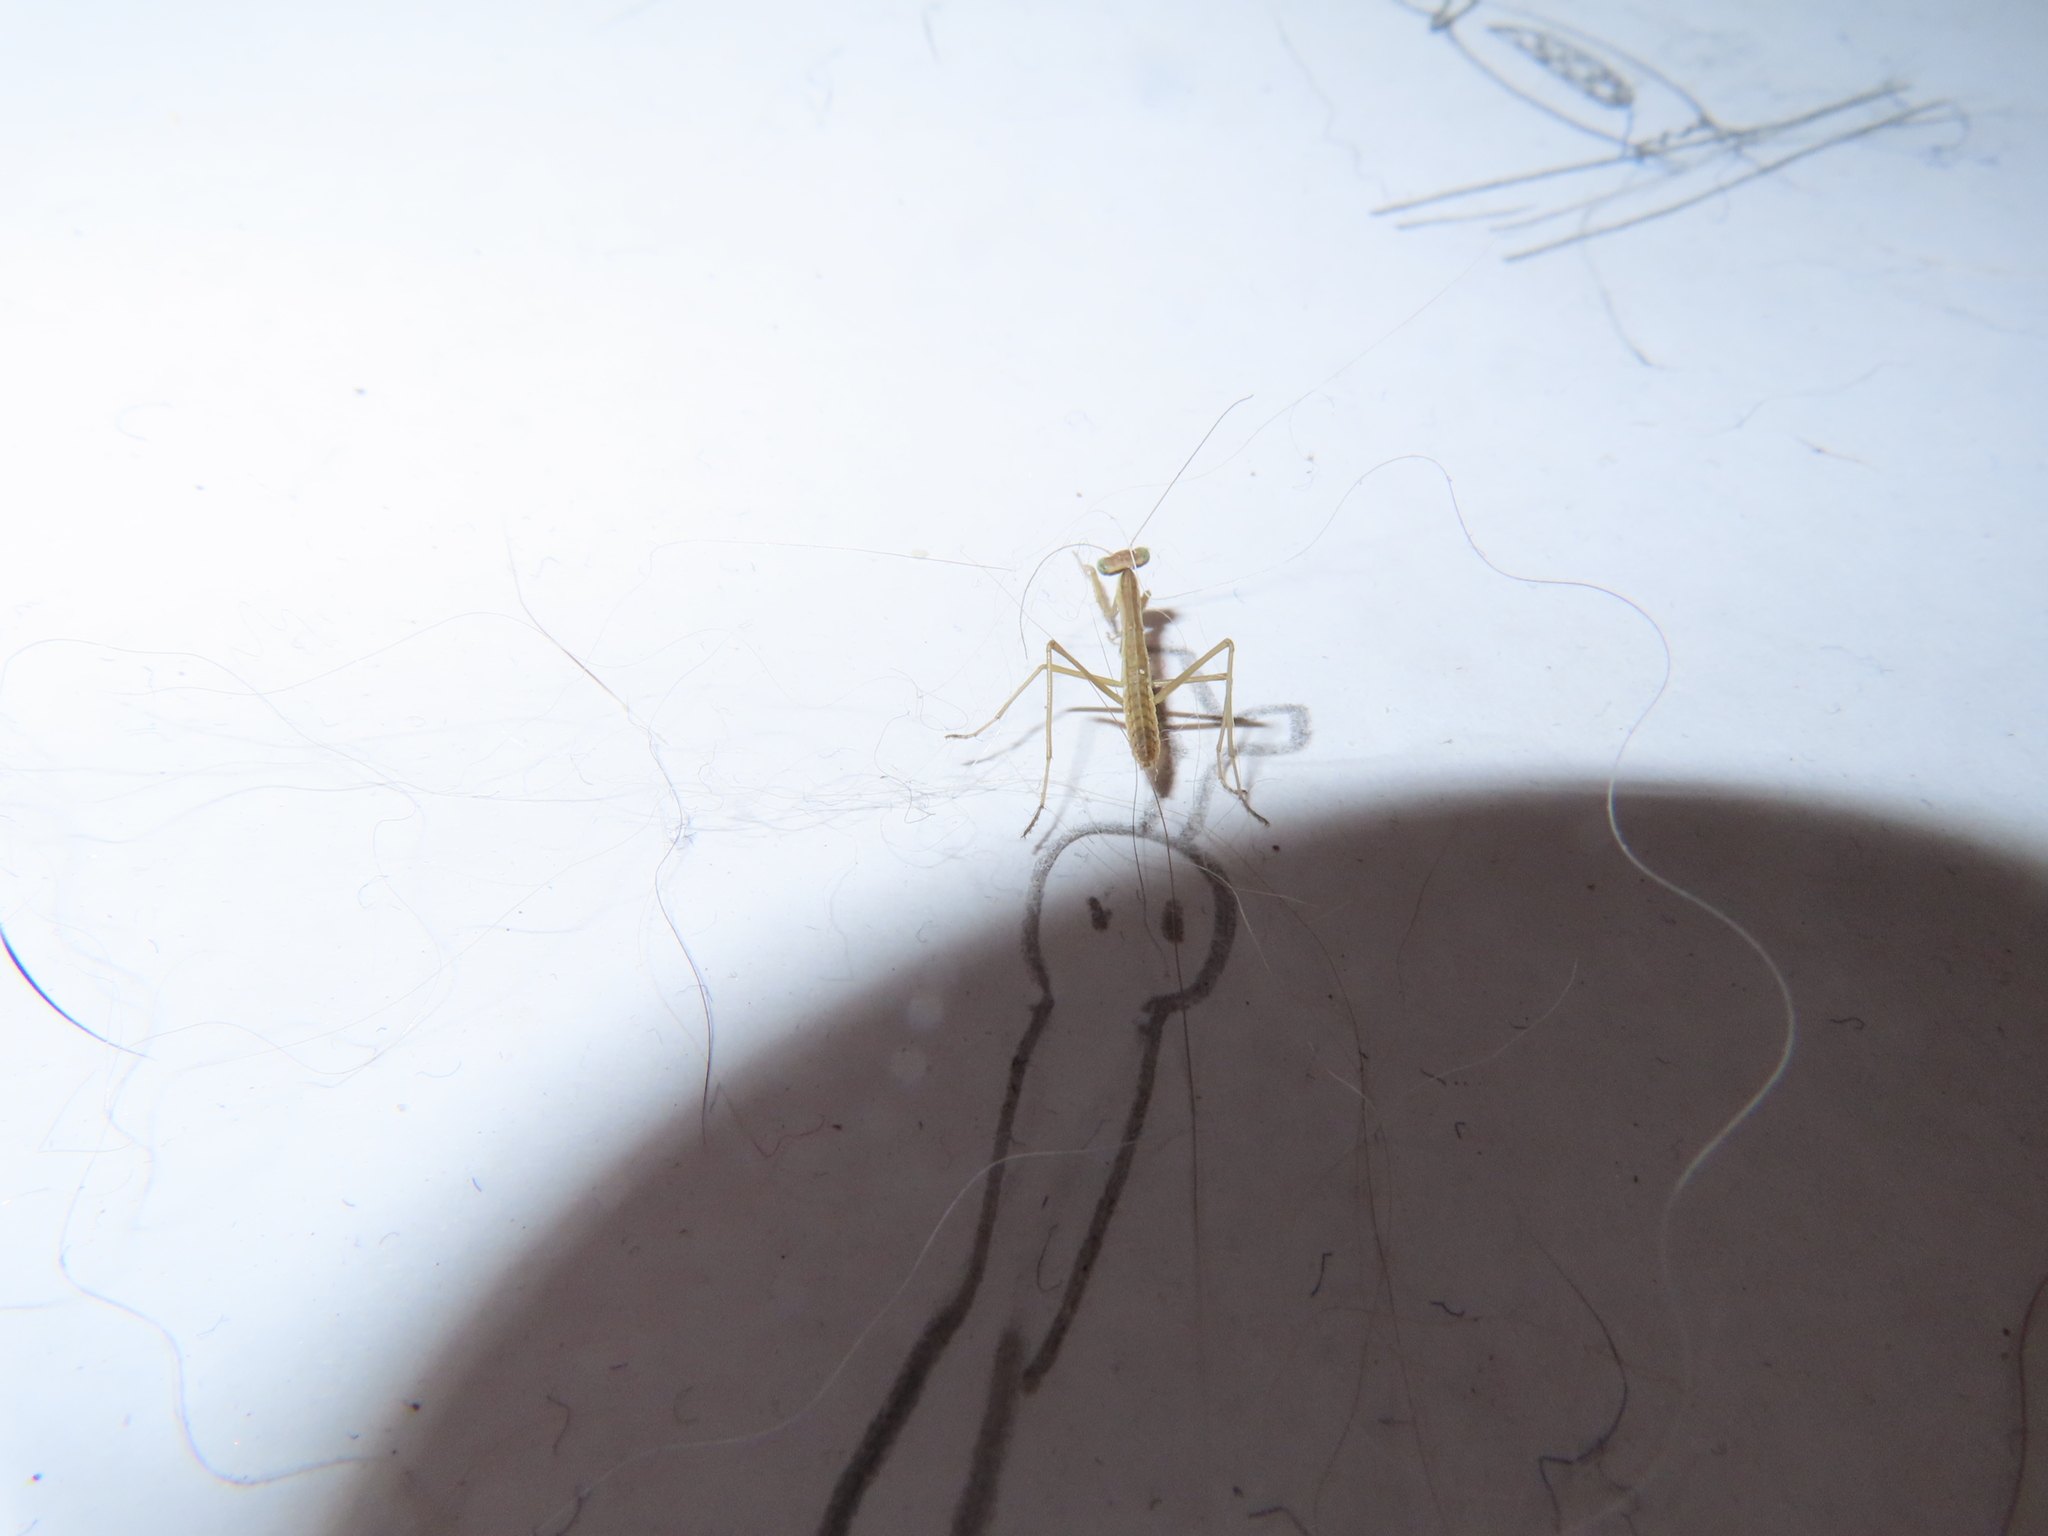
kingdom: Animalia
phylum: Arthropoda
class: Insecta
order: Mantodea
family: Mantidae
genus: Tenodera
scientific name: Tenodera sinensis
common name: Chinese mantis
